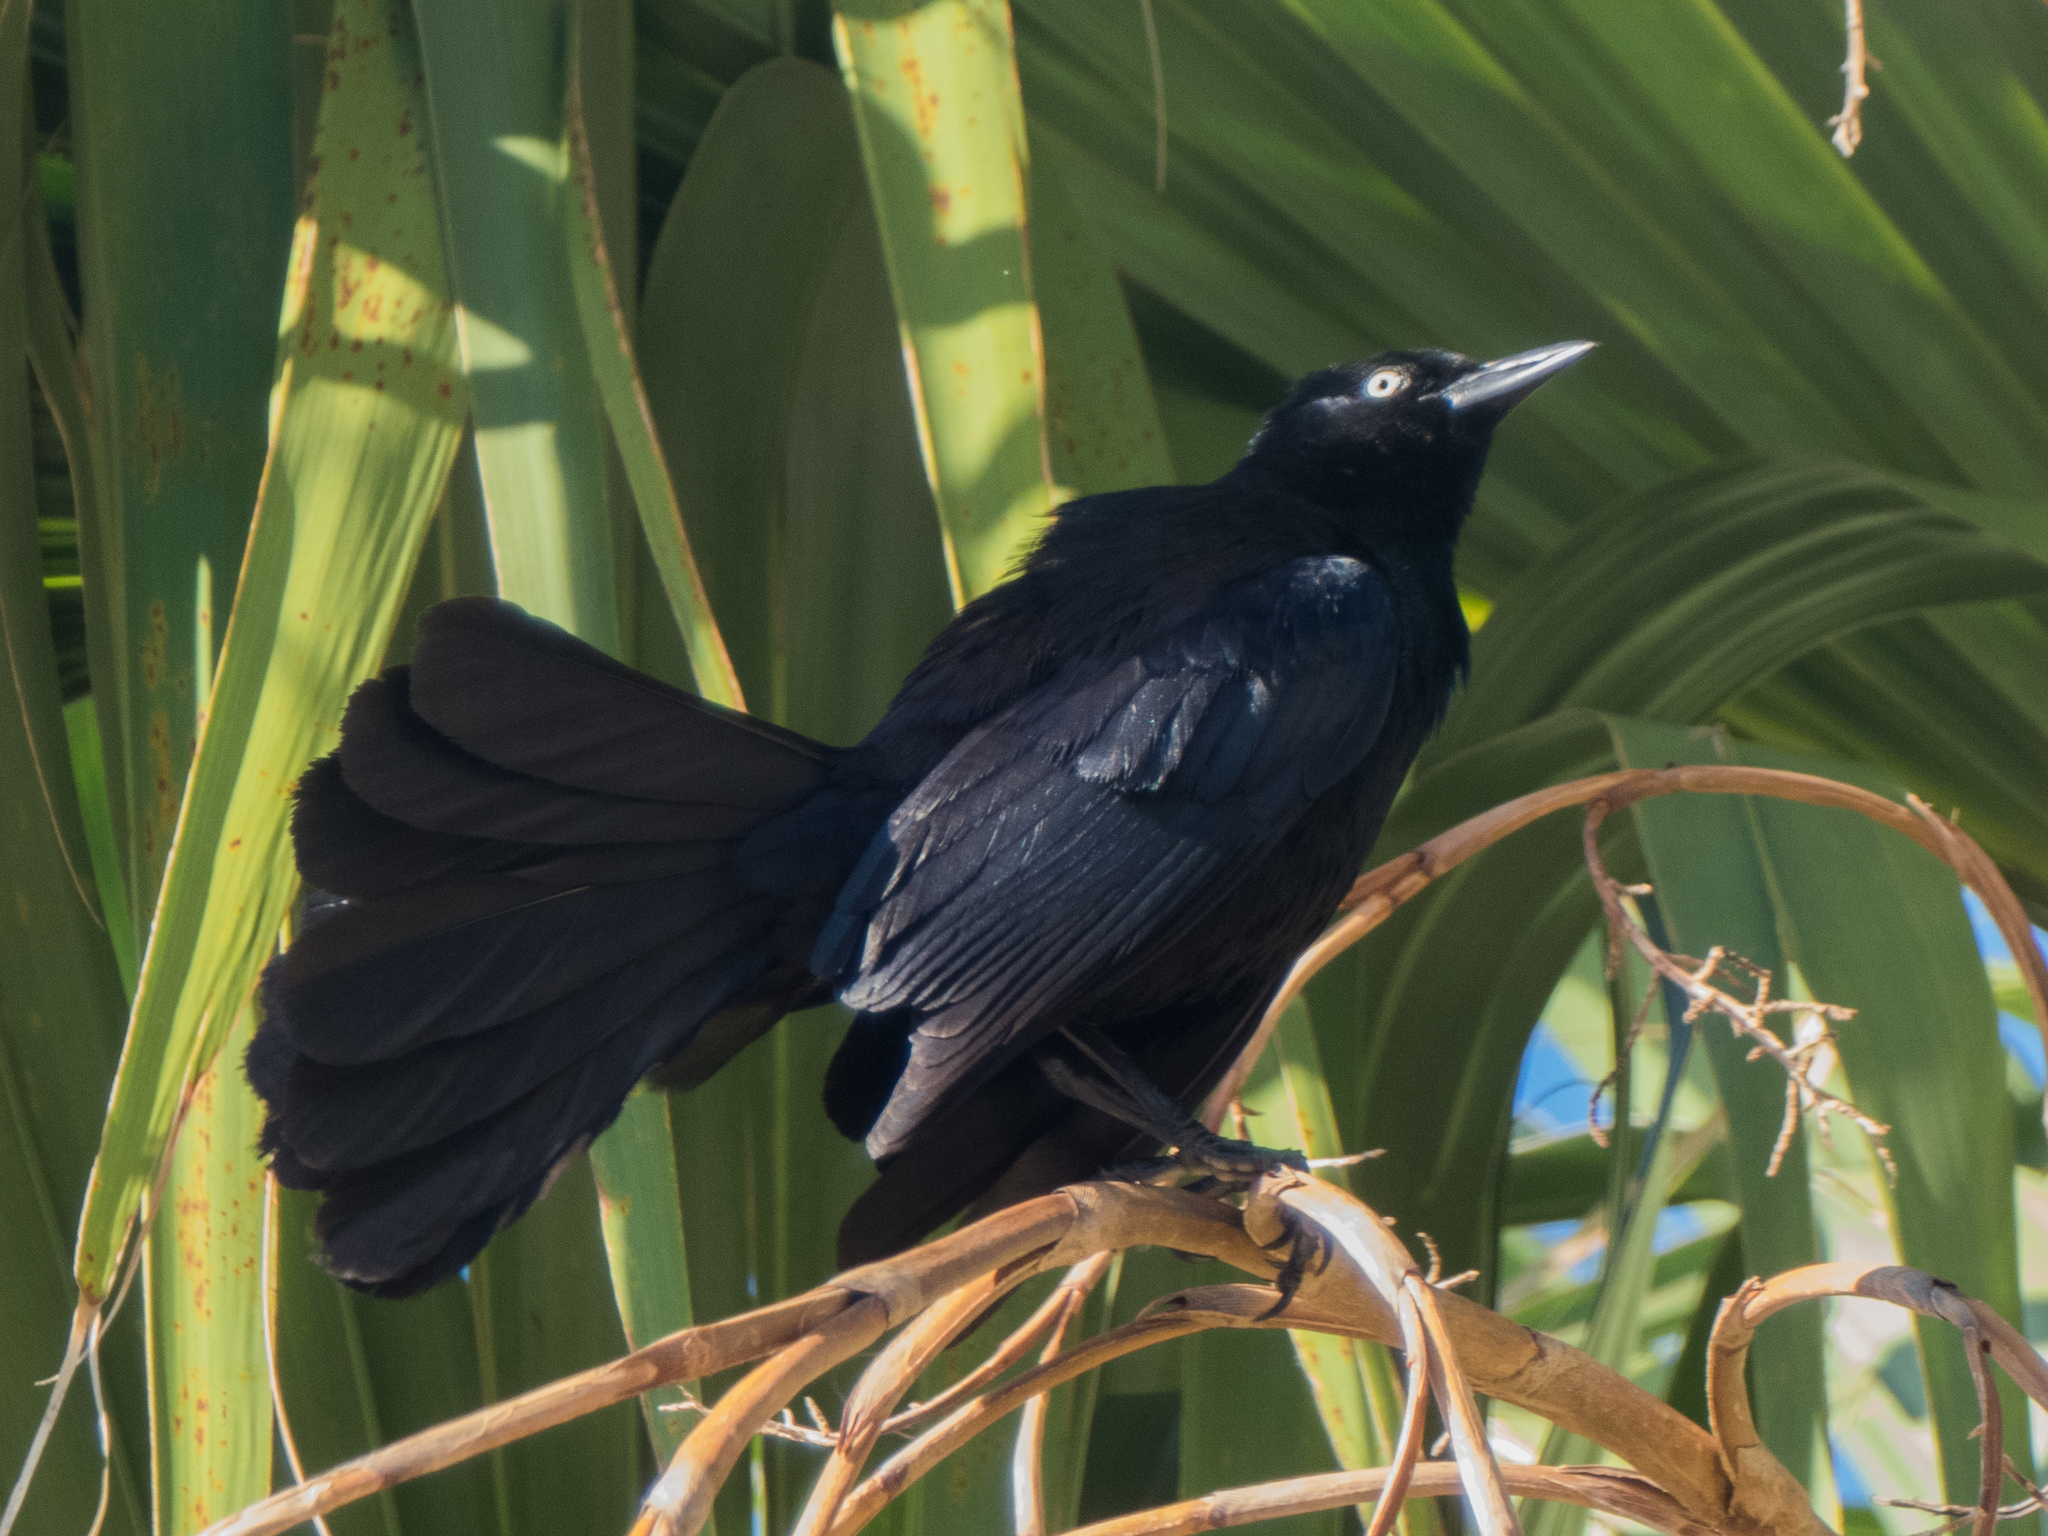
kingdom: Animalia
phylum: Chordata
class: Aves
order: Passeriformes
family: Icteridae
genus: Quiscalus
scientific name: Quiscalus niger
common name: Greater antillean grackle
